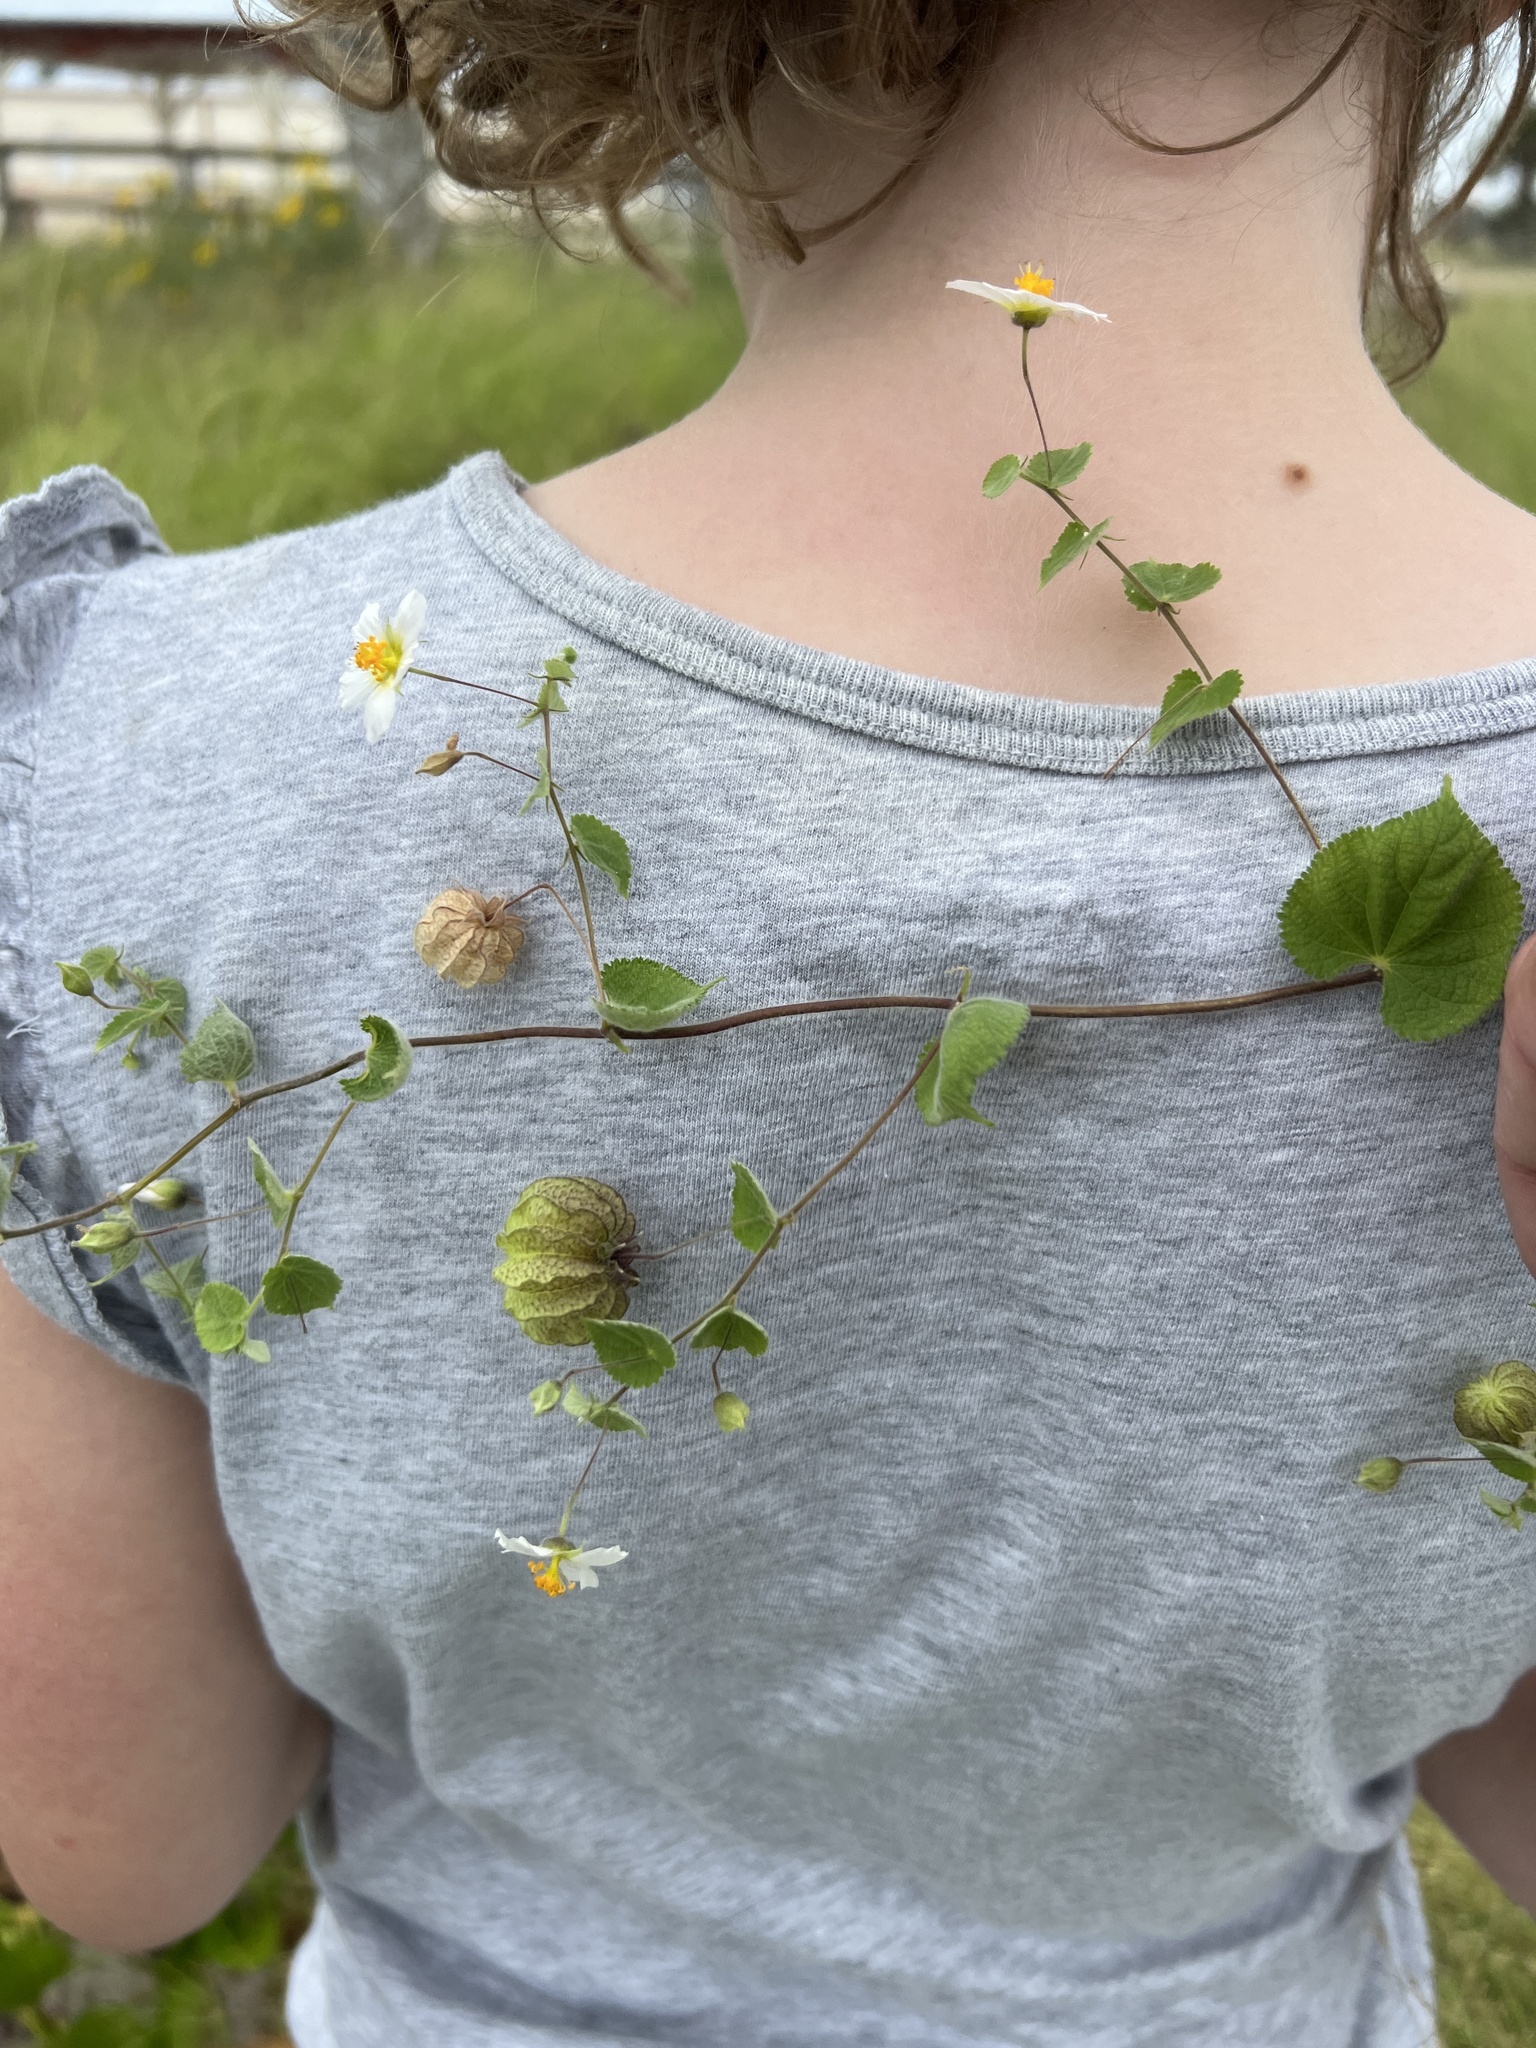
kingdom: Plantae
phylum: Tracheophyta
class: Magnoliopsida
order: Malvales
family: Malvaceae
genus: Herissantia
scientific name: Herissantia crispa
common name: Bladdermallow
